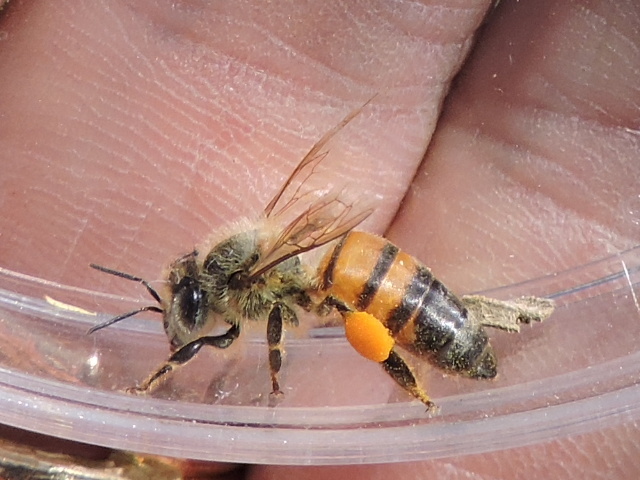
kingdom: Animalia
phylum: Arthropoda
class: Insecta
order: Hymenoptera
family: Apidae
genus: Apis
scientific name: Apis mellifera
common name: Honey bee
